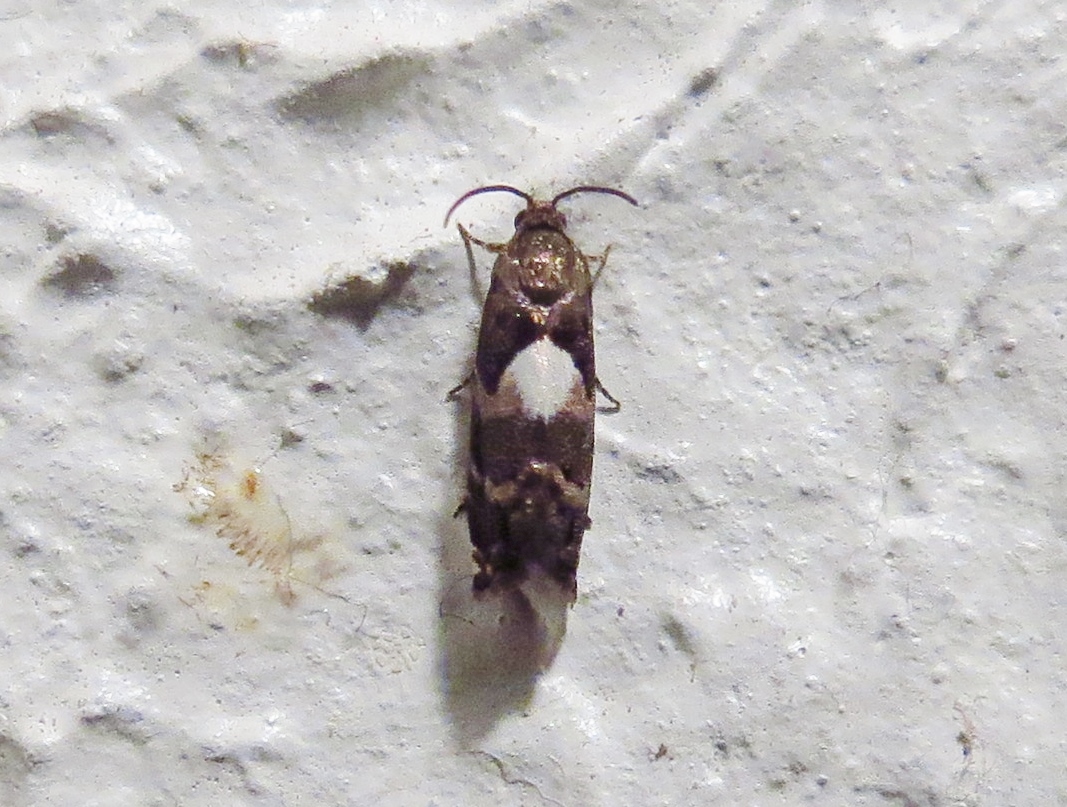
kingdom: Animalia
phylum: Arthropoda
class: Insecta
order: Lepidoptera
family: Tortricidae
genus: Cydia
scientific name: Cydia albimaculana
